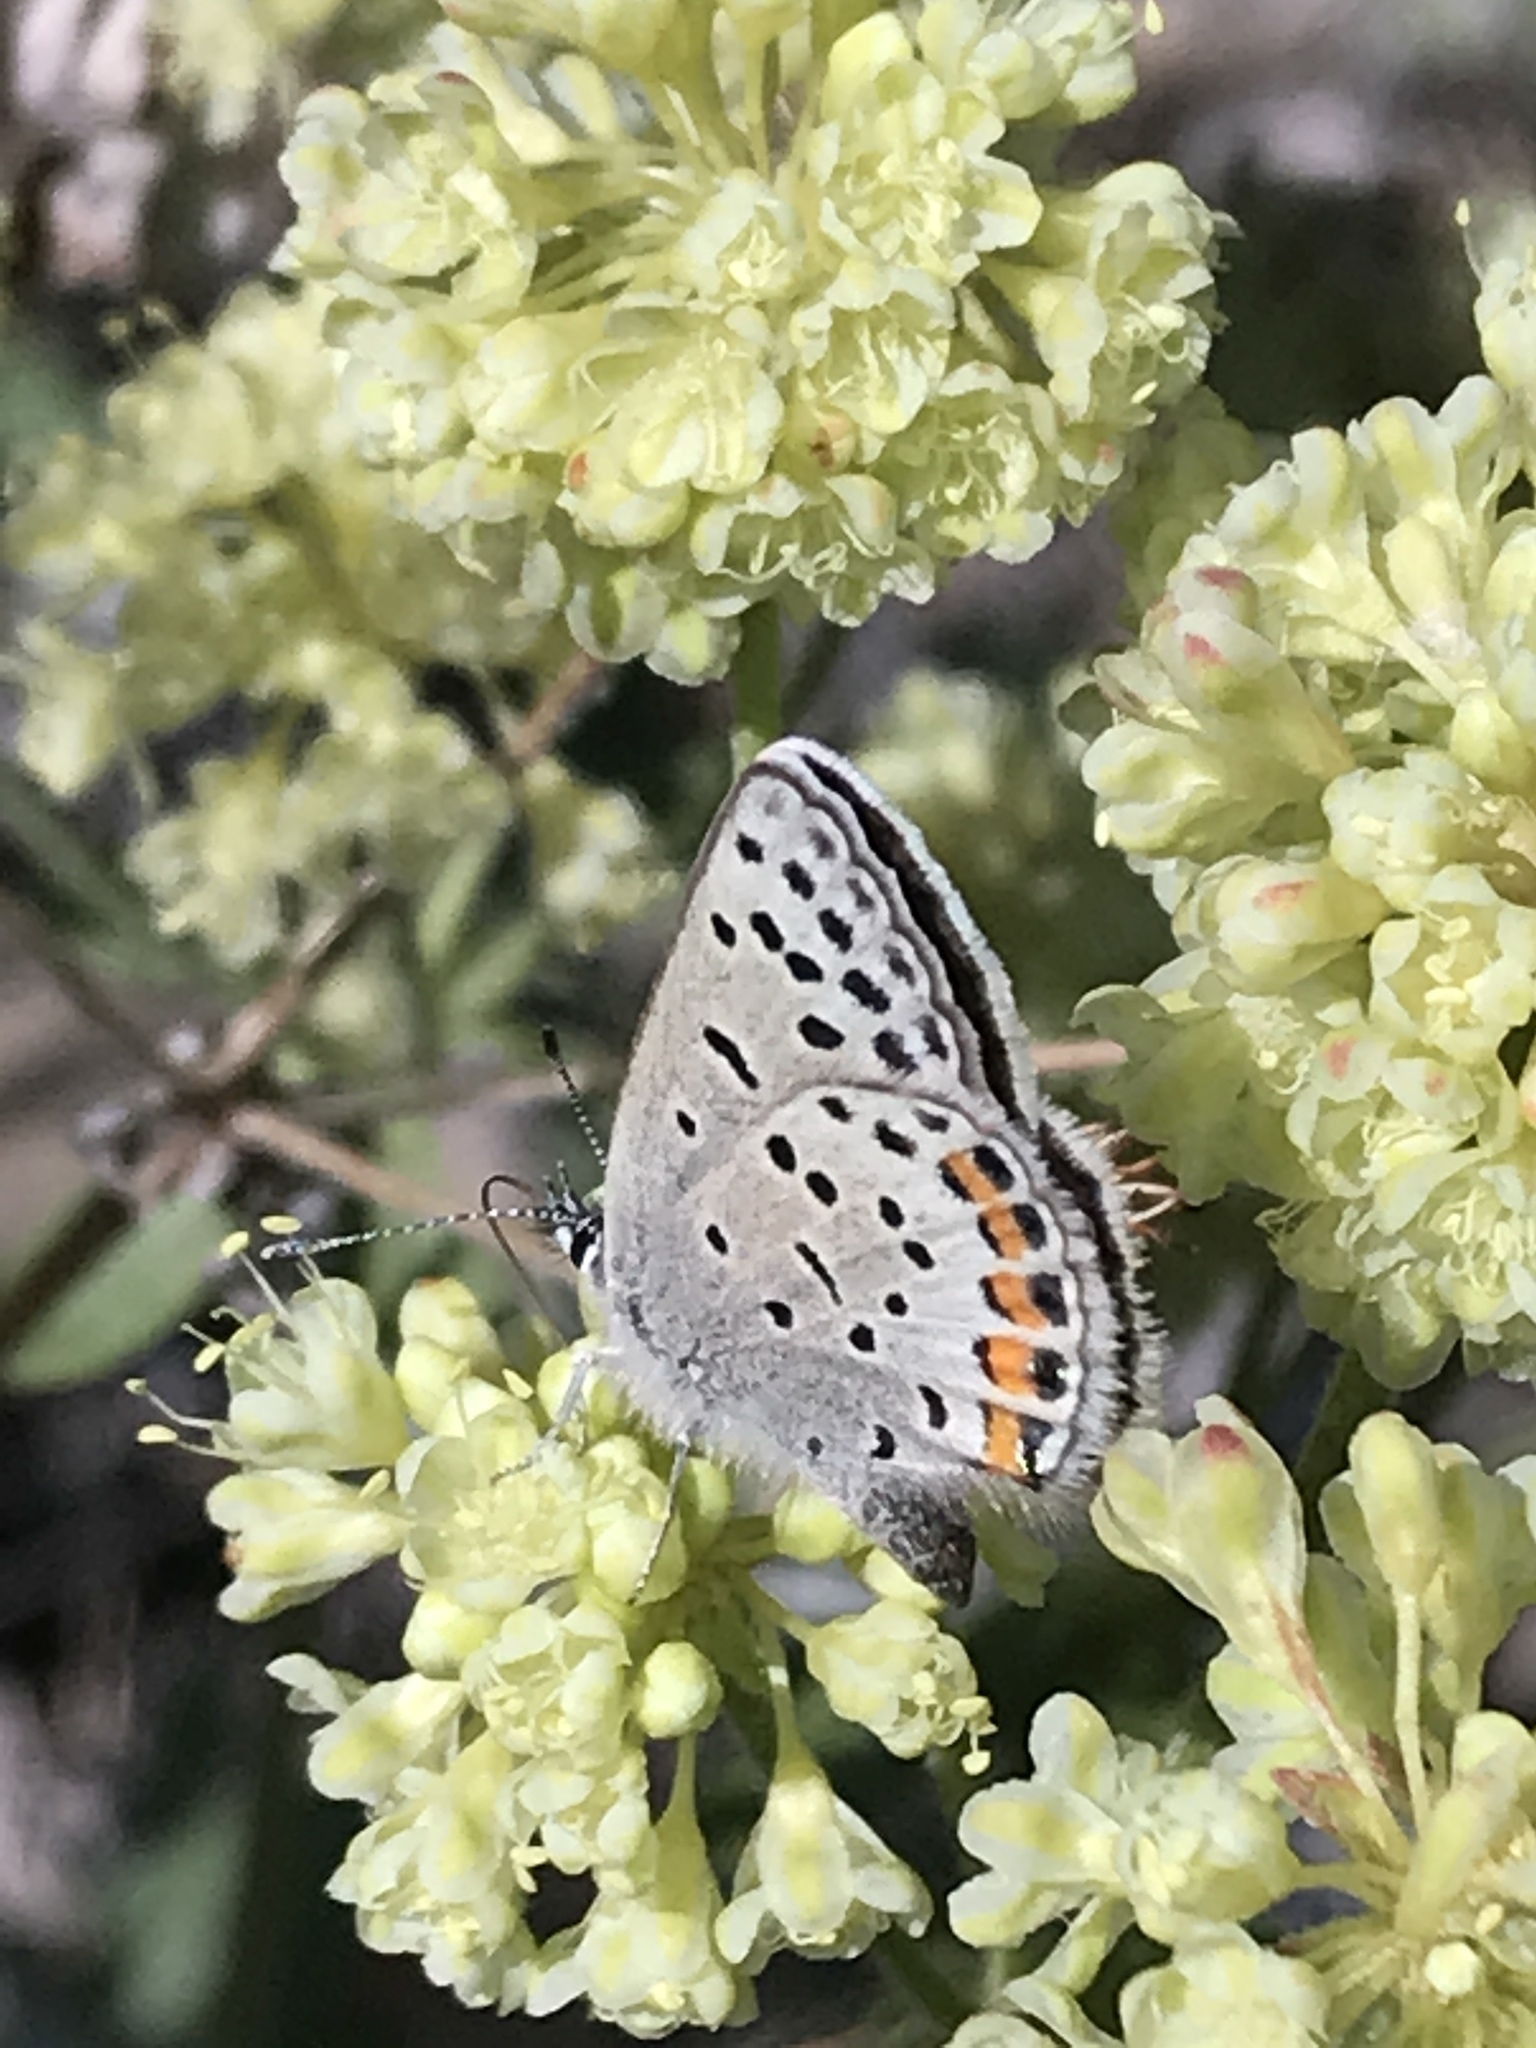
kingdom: Animalia
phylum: Arthropoda
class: Insecta
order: Lepidoptera
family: Lycaenidae
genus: Icaricia
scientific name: Icaricia lupini
